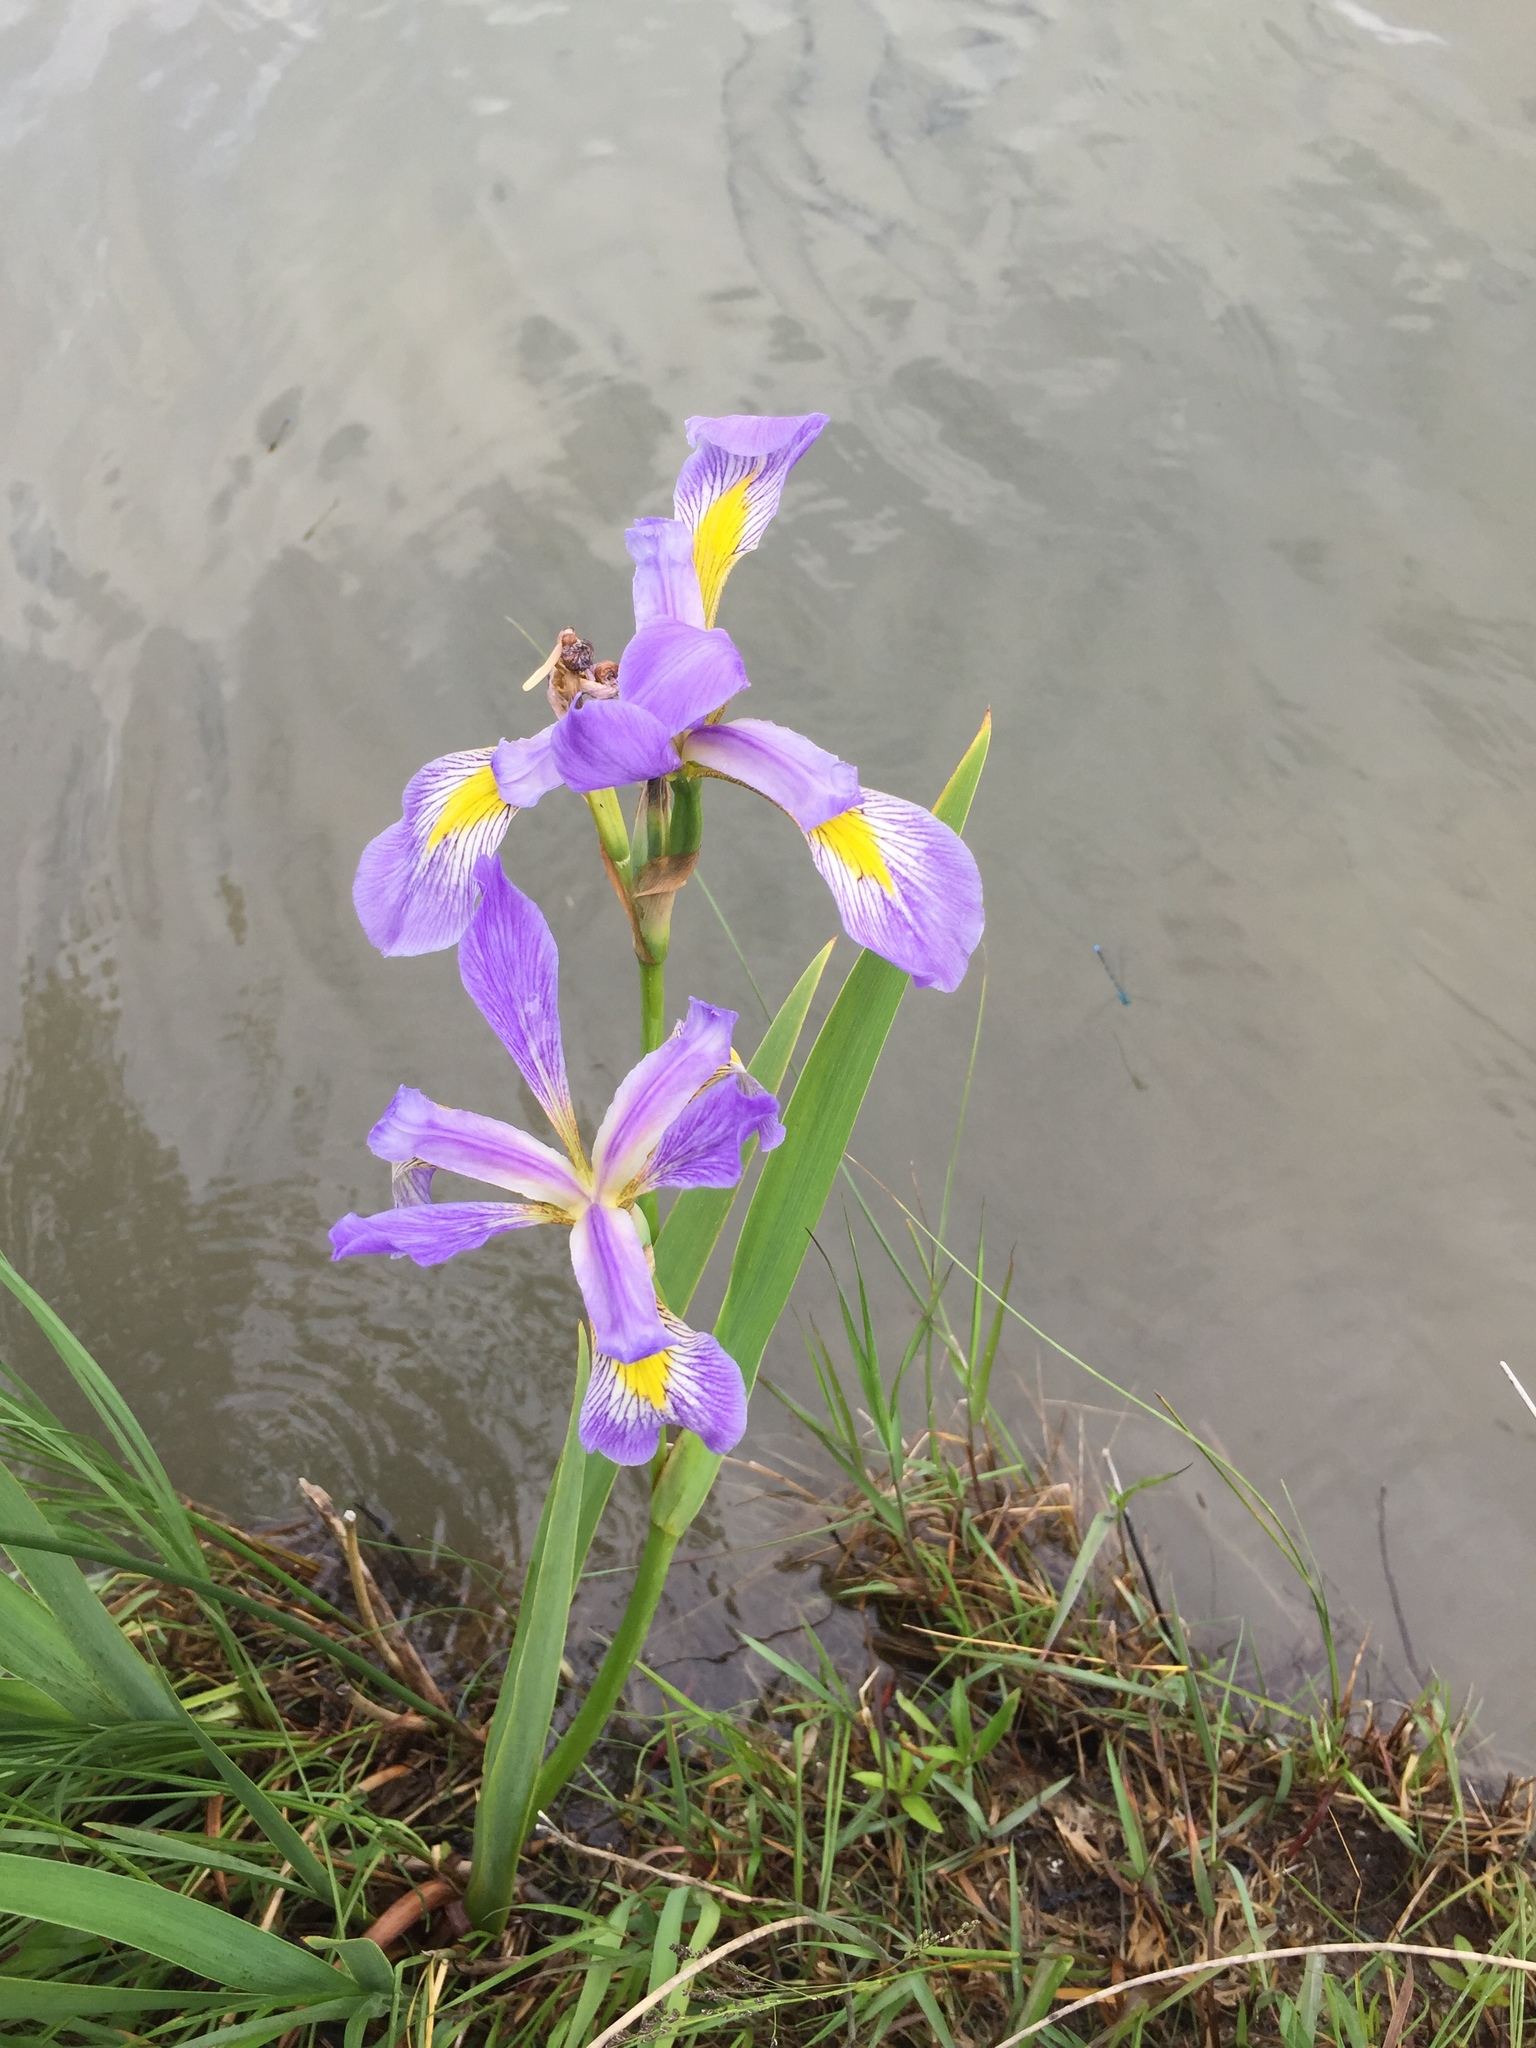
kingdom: Plantae
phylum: Tracheophyta
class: Liliopsida
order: Asparagales
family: Iridaceae
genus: Iris
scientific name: Iris virginica
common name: Southern blue flag
